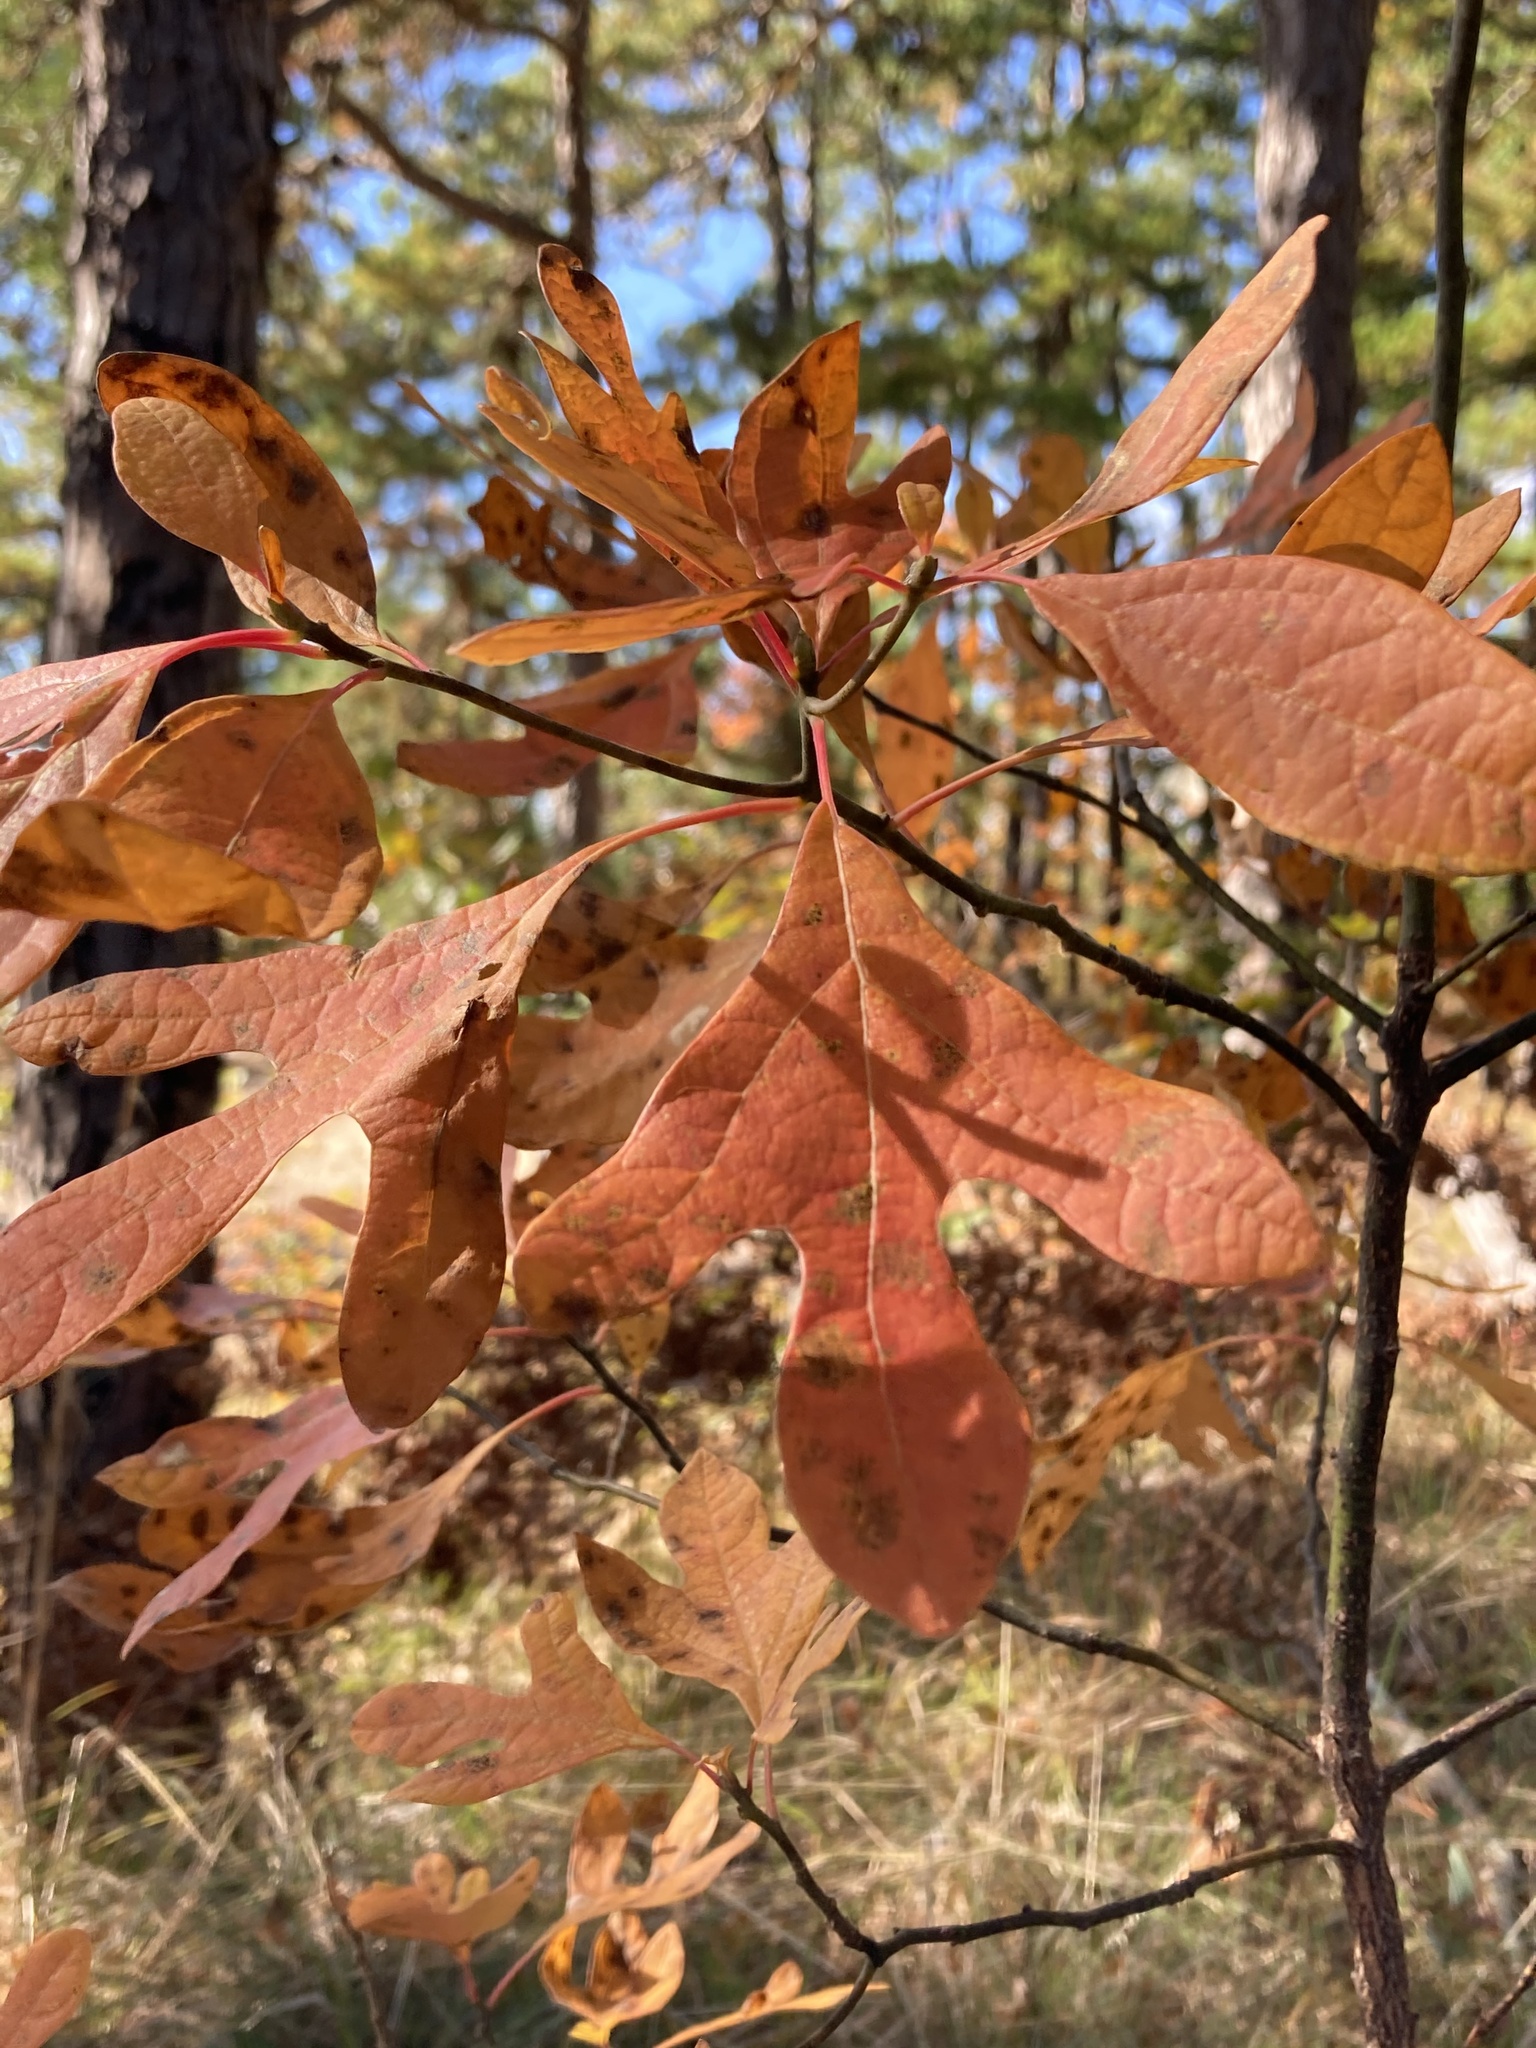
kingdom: Plantae
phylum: Tracheophyta
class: Magnoliopsida
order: Laurales
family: Lauraceae
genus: Sassafras
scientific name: Sassafras albidum
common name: Sassafras
